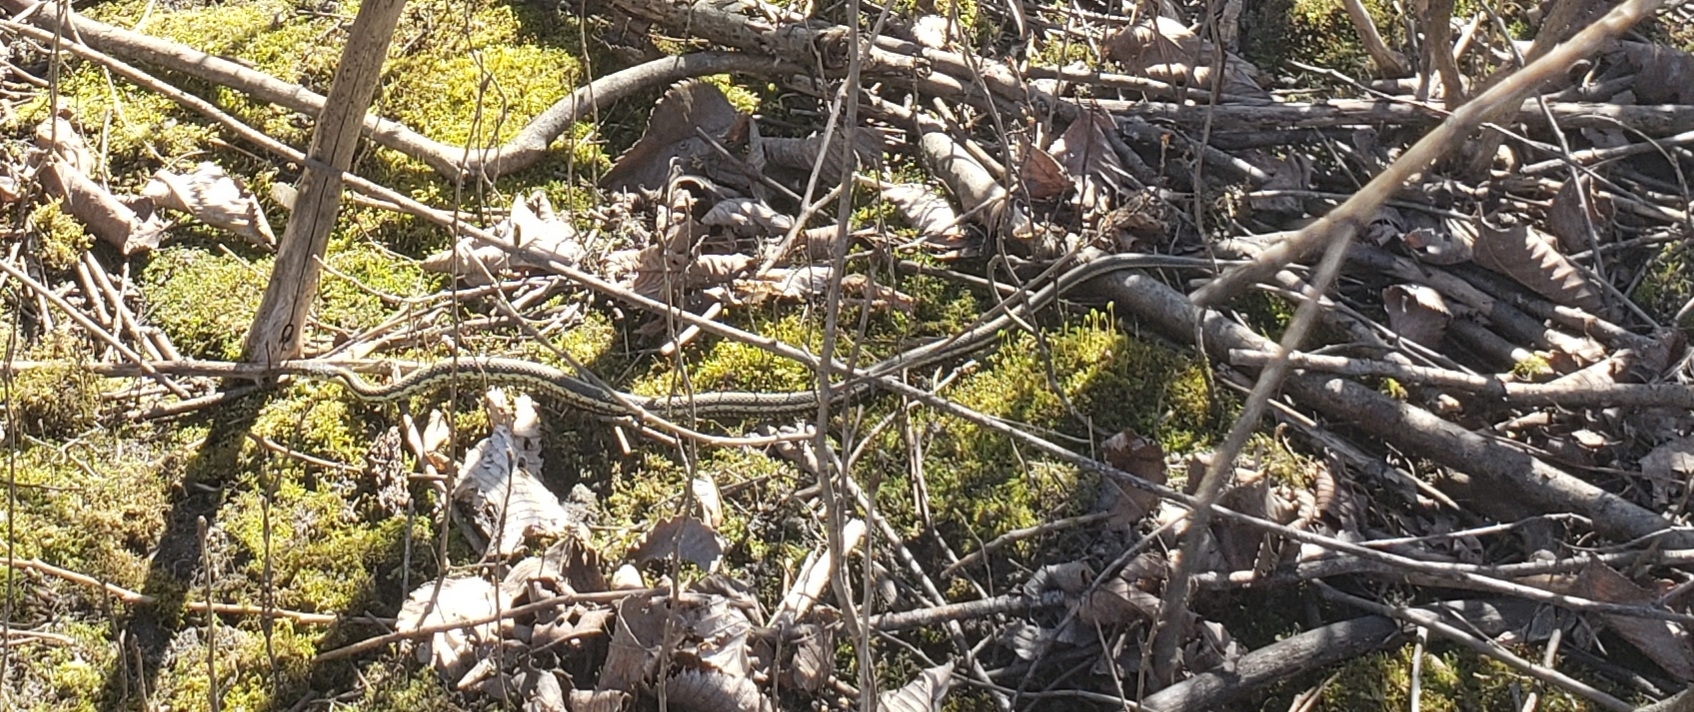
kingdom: Animalia
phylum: Chordata
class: Squamata
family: Colubridae
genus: Thamnophis
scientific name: Thamnophis sirtalis
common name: Common garter snake
